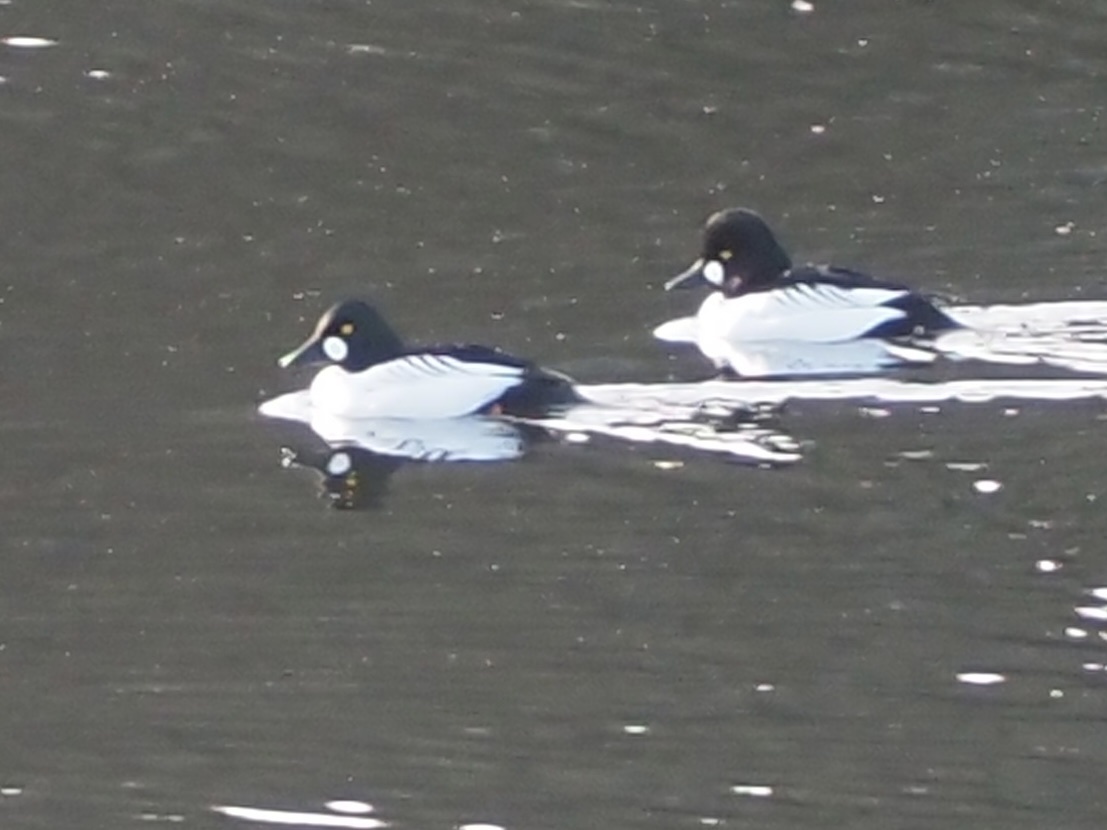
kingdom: Animalia
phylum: Chordata
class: Aves
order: Anseriformes
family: Anatidae
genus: Bucephala
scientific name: Bucephala clangula
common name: Common goldeneye
